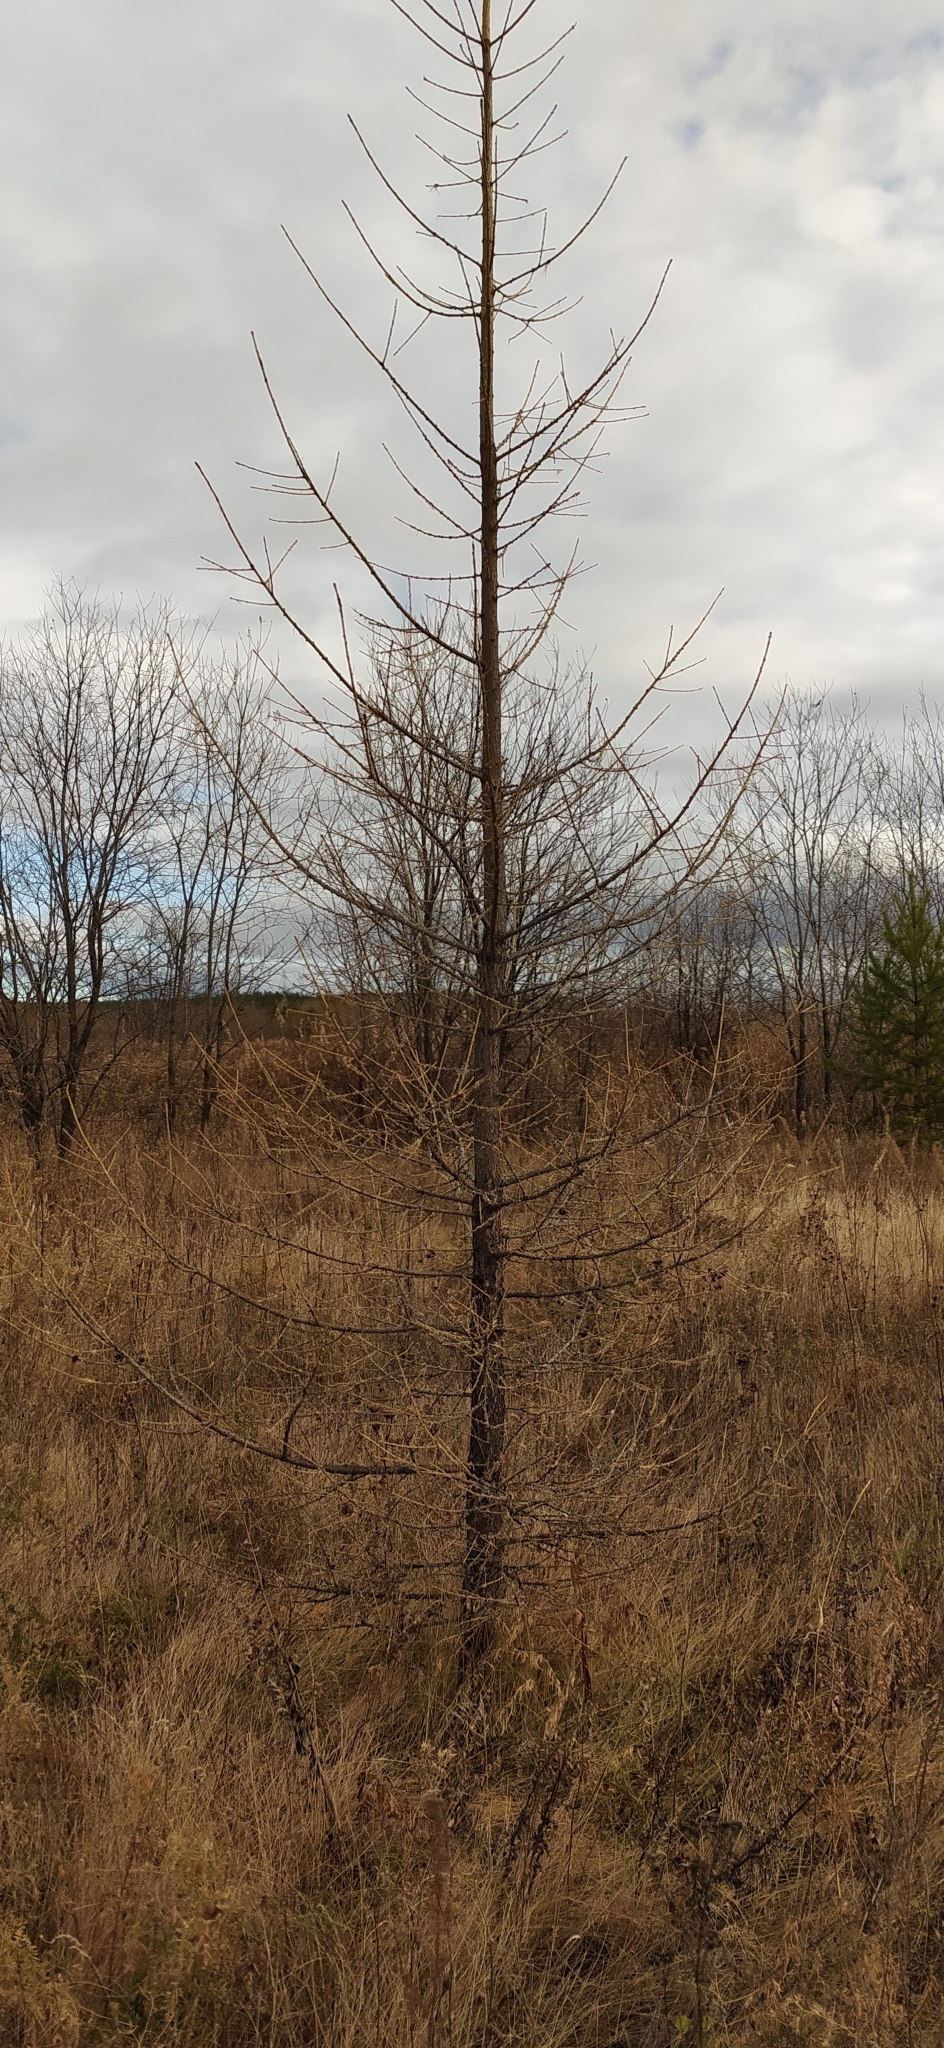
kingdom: Plantae
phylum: Tracheophyta
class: Pinopsida
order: Pinales
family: Pinaceae
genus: Larix
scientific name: Larix sibirica
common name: Siberian larch
